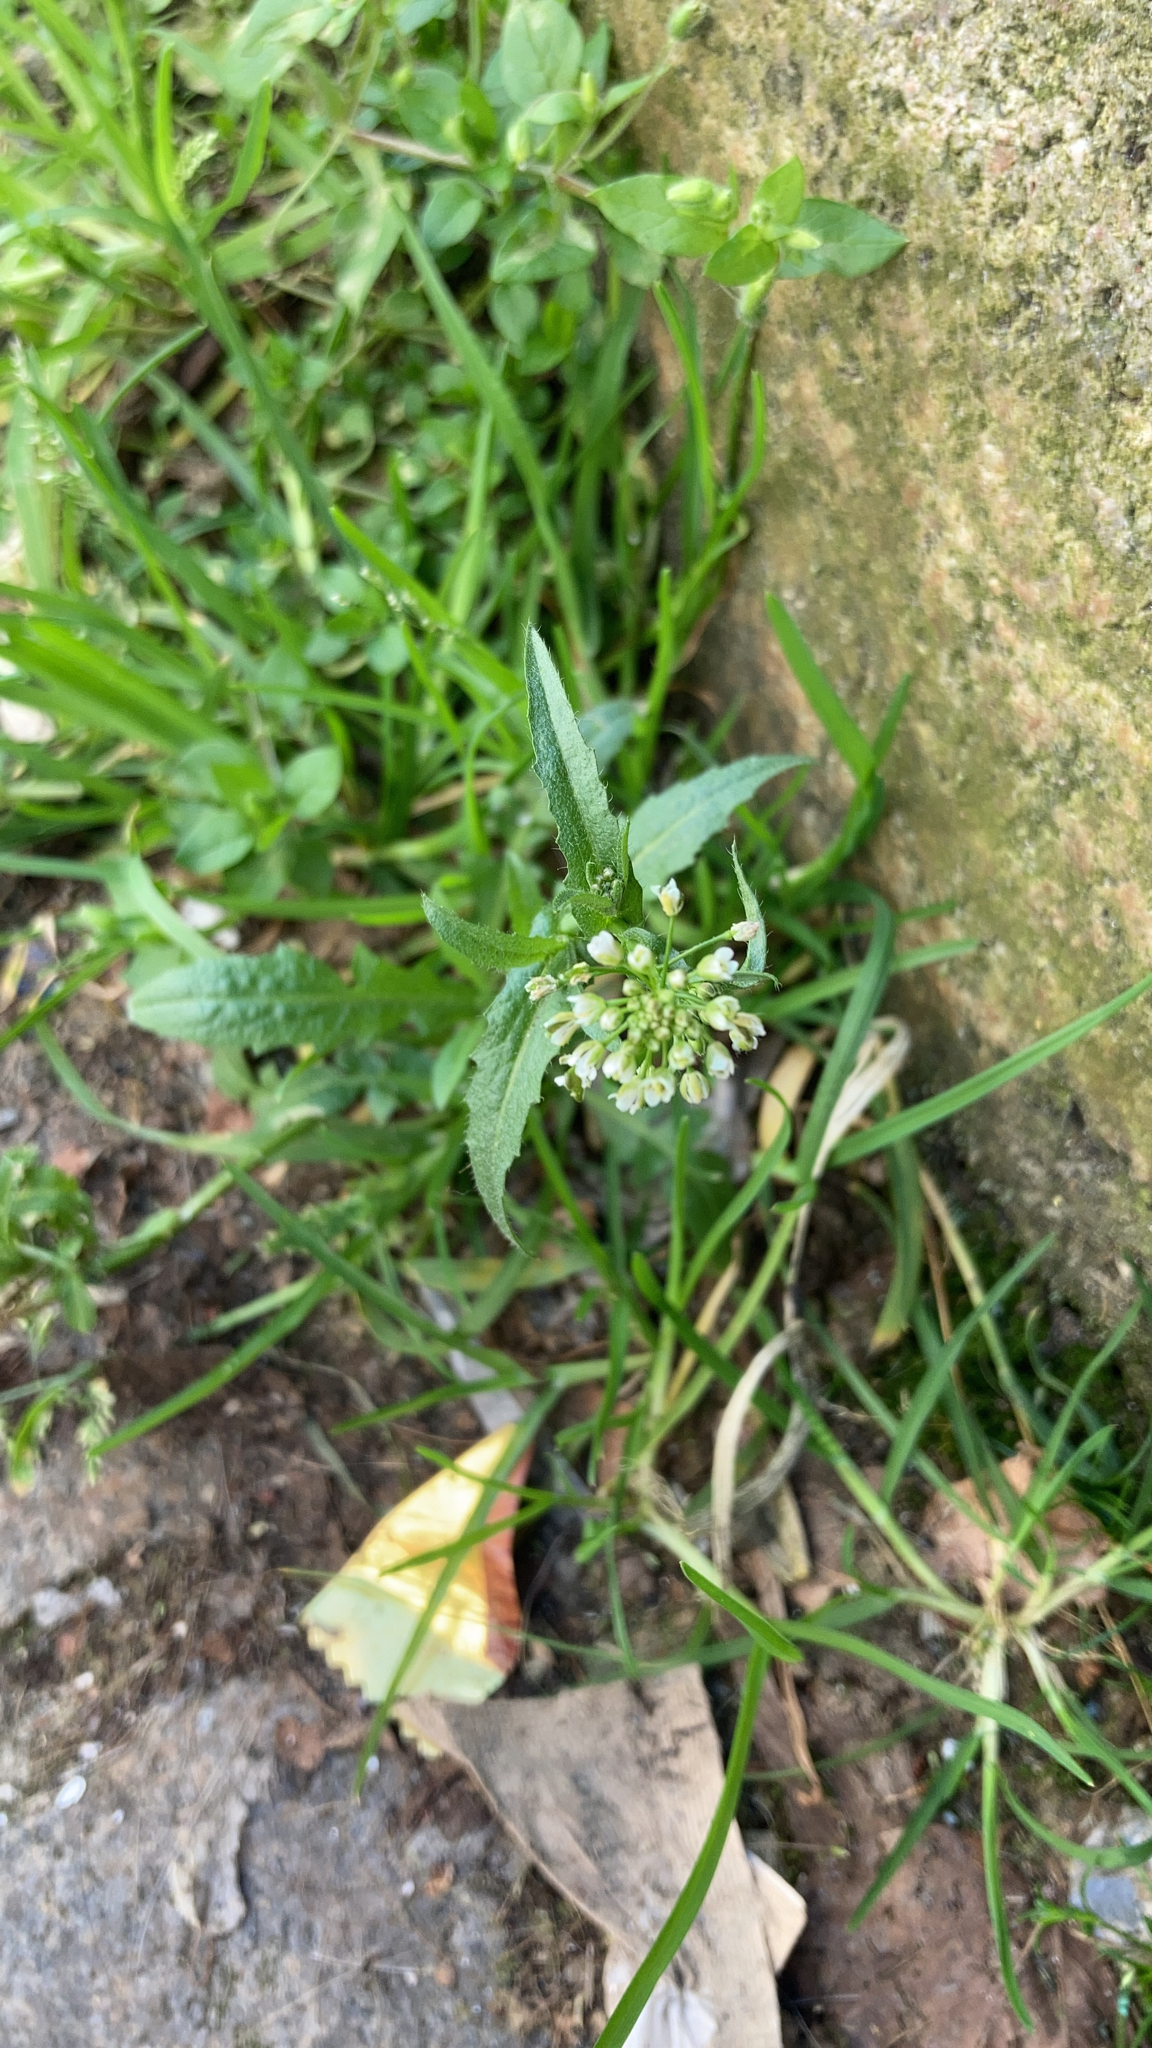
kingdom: Plantae
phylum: Tracheophyta
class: Magnoliopsida
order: Brassicales
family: Brassicaceae
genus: Capsella
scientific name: Capsella bursa-pastoris
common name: Shepherd's purse
